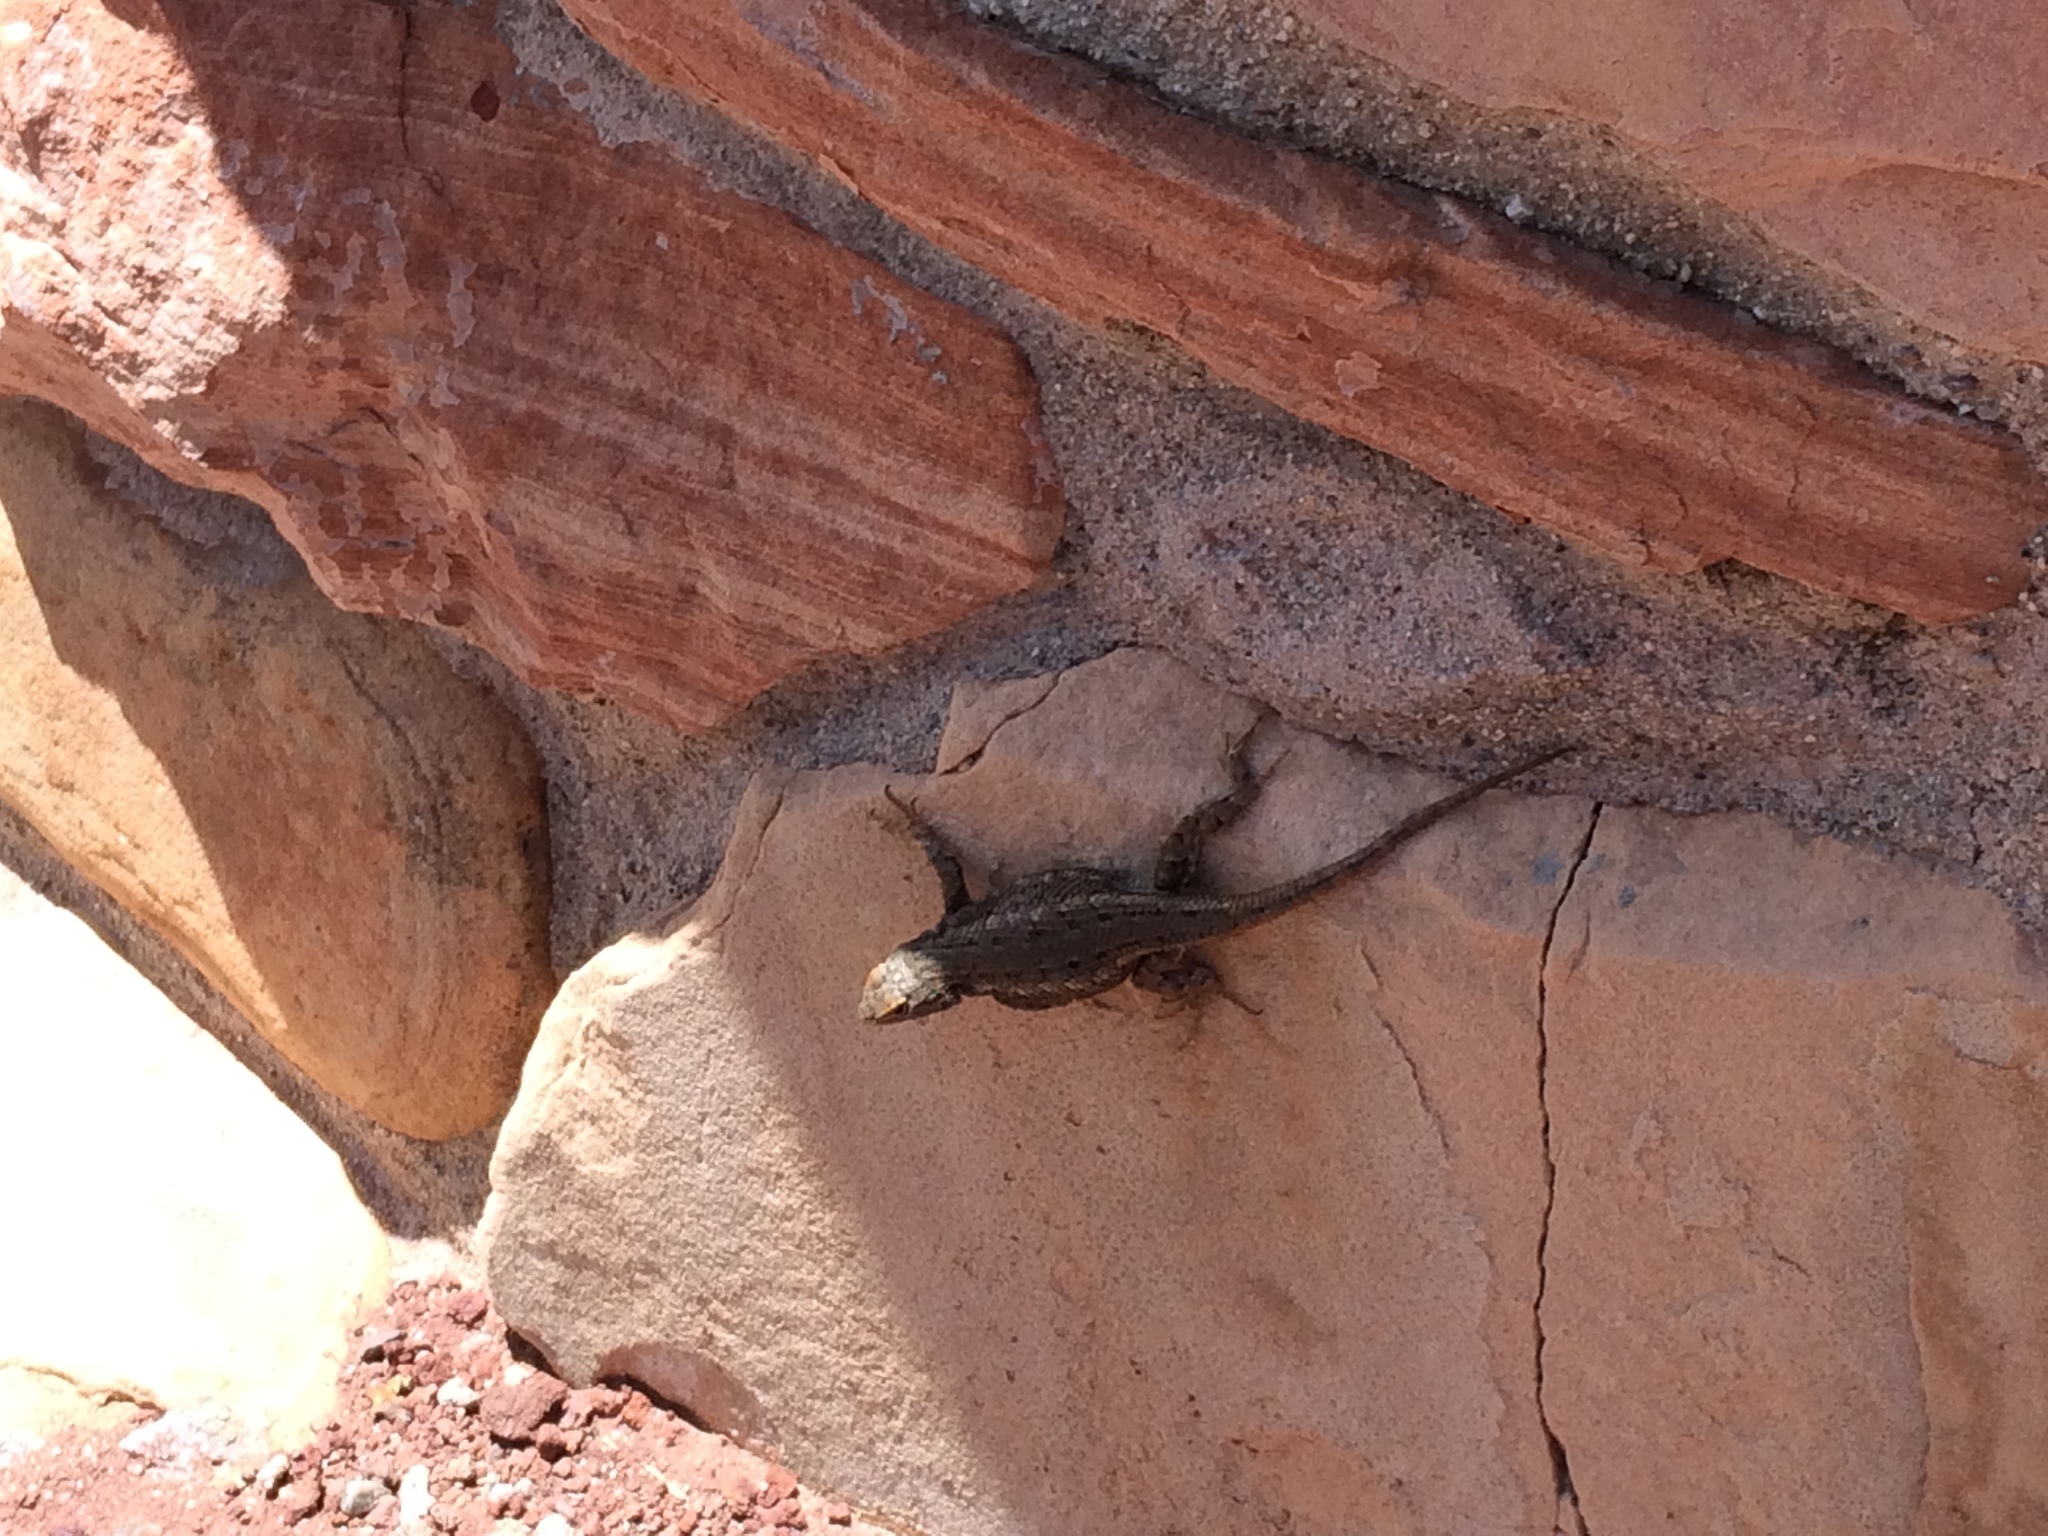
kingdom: Animalia
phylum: Chordata
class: Squamata
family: Phrynosomatidae
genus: Sceloporus
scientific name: Sceloporus tristichus
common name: Plateau fence lizard
